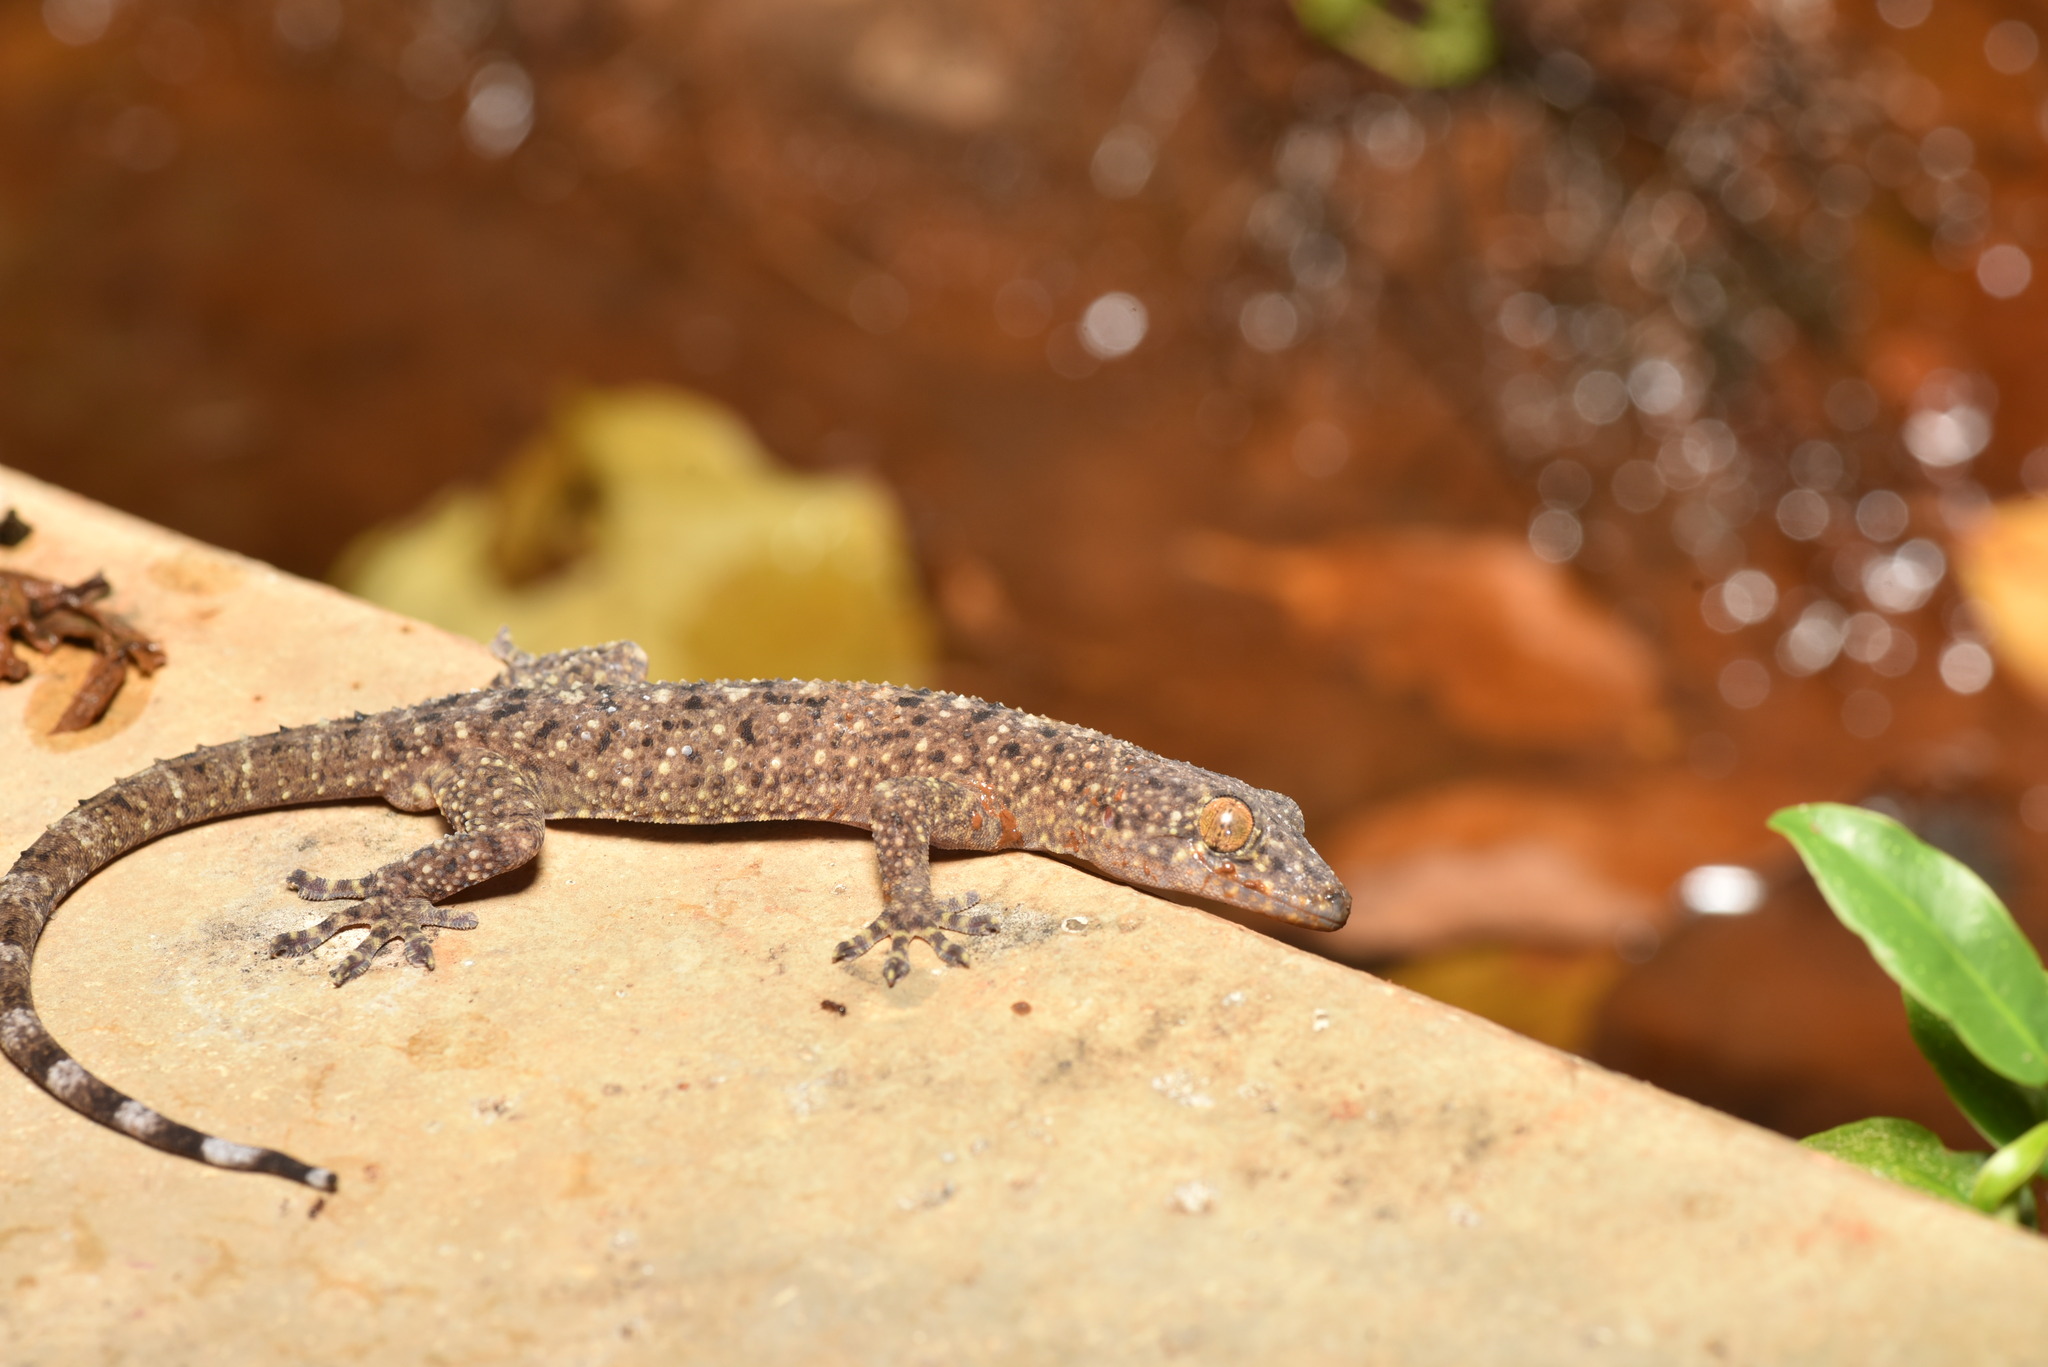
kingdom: Animalia
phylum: Chordata
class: Squamata
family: Gekkonidae
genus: Gekko
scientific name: Gekko monarchus
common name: Spotted house gecko
